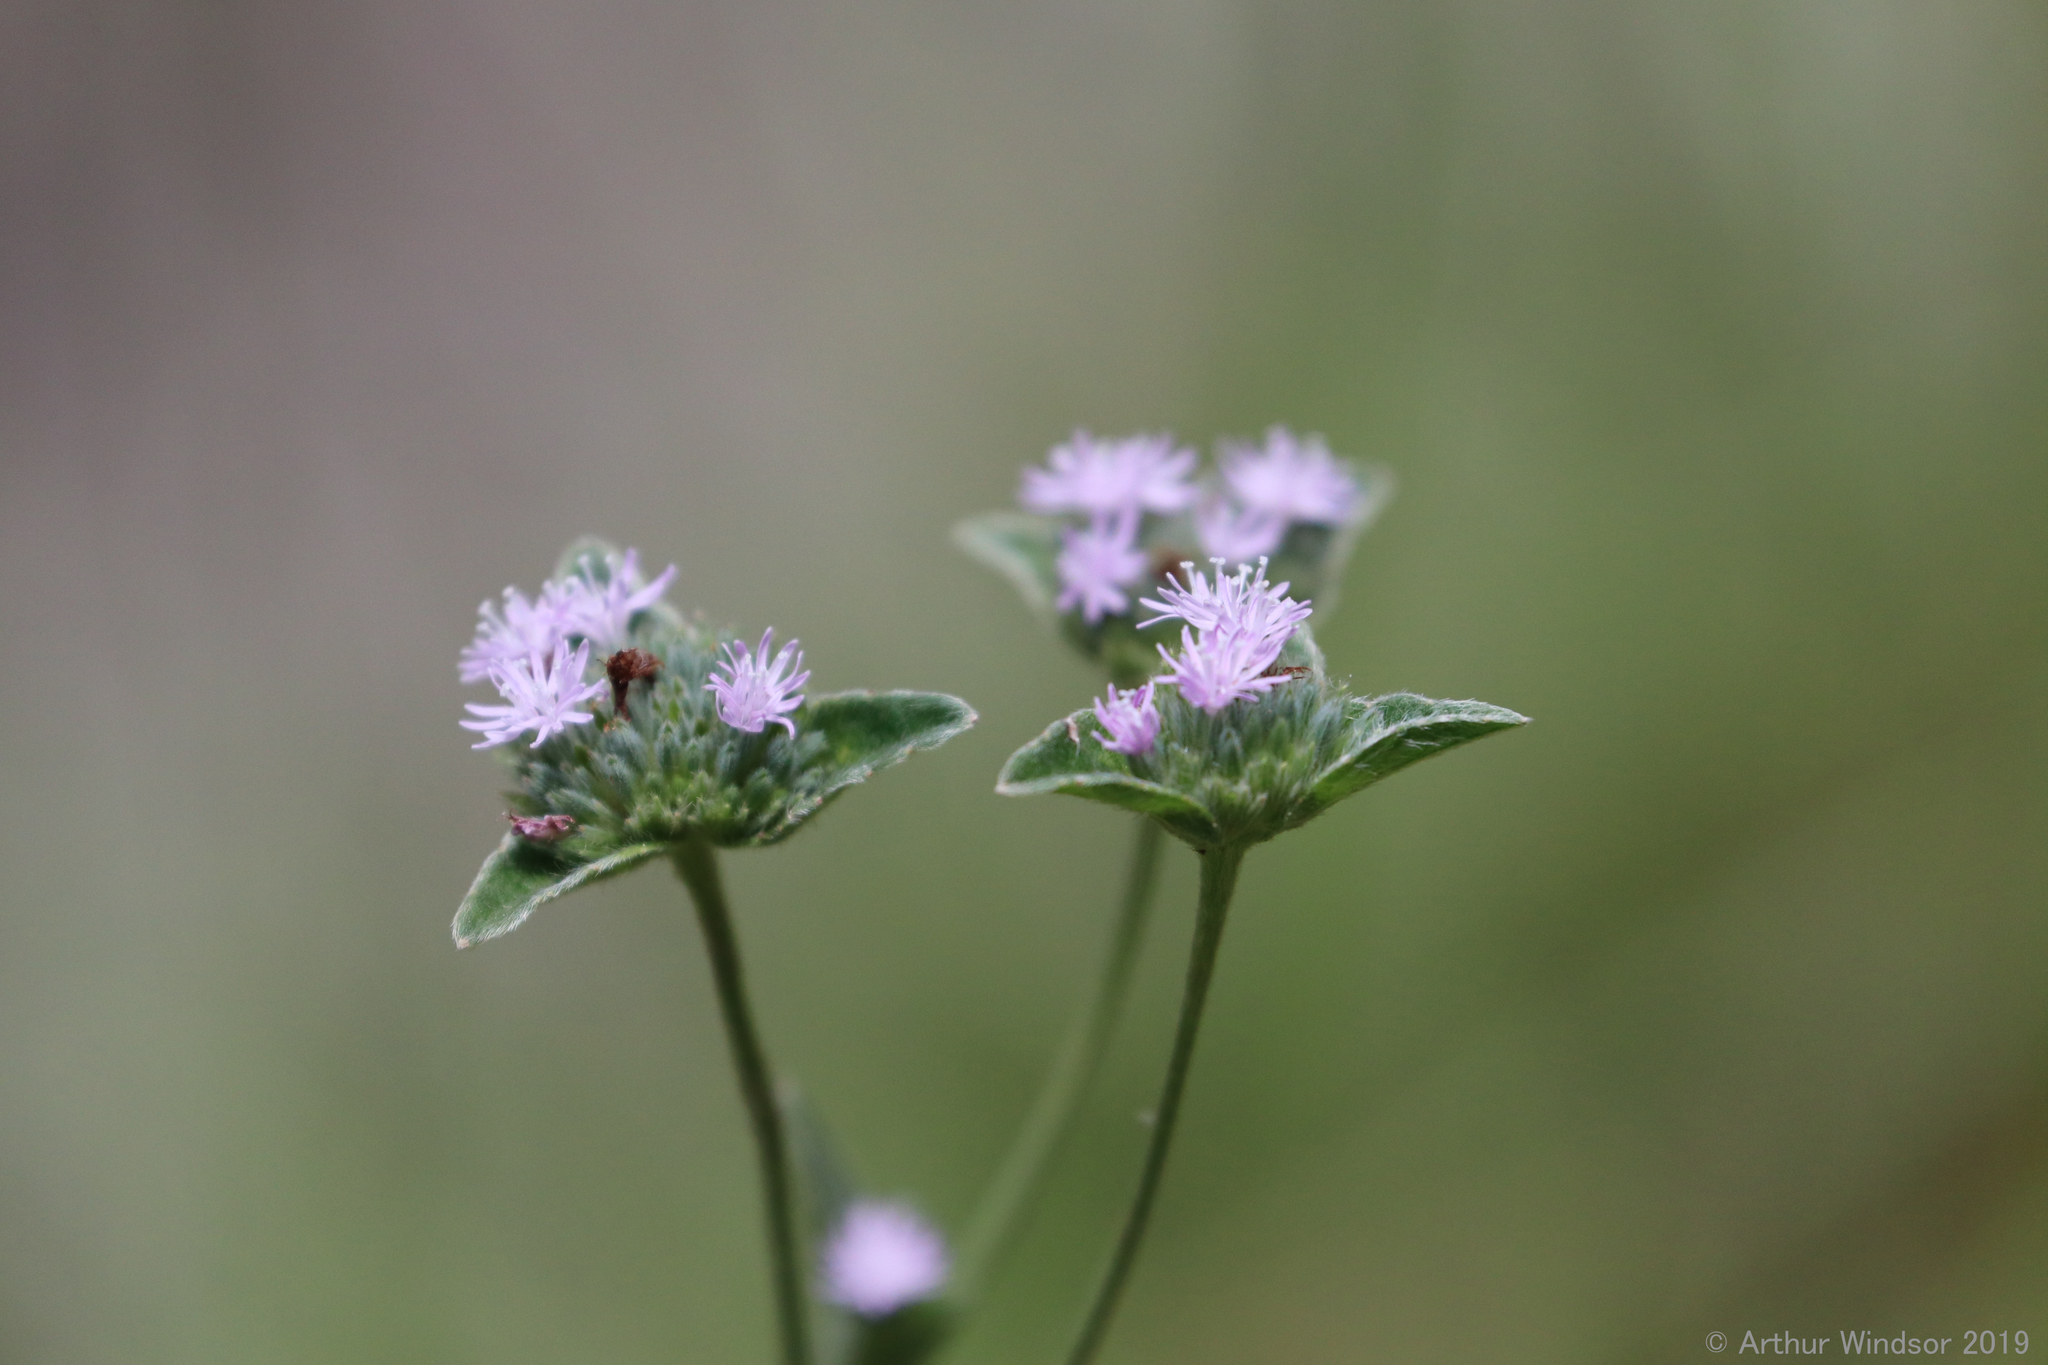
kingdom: Plantae
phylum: Tracheophyta
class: Magnoliopsida
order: Asterales
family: Asteraceae
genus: Elephantopus
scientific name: Elephantopus elatus
